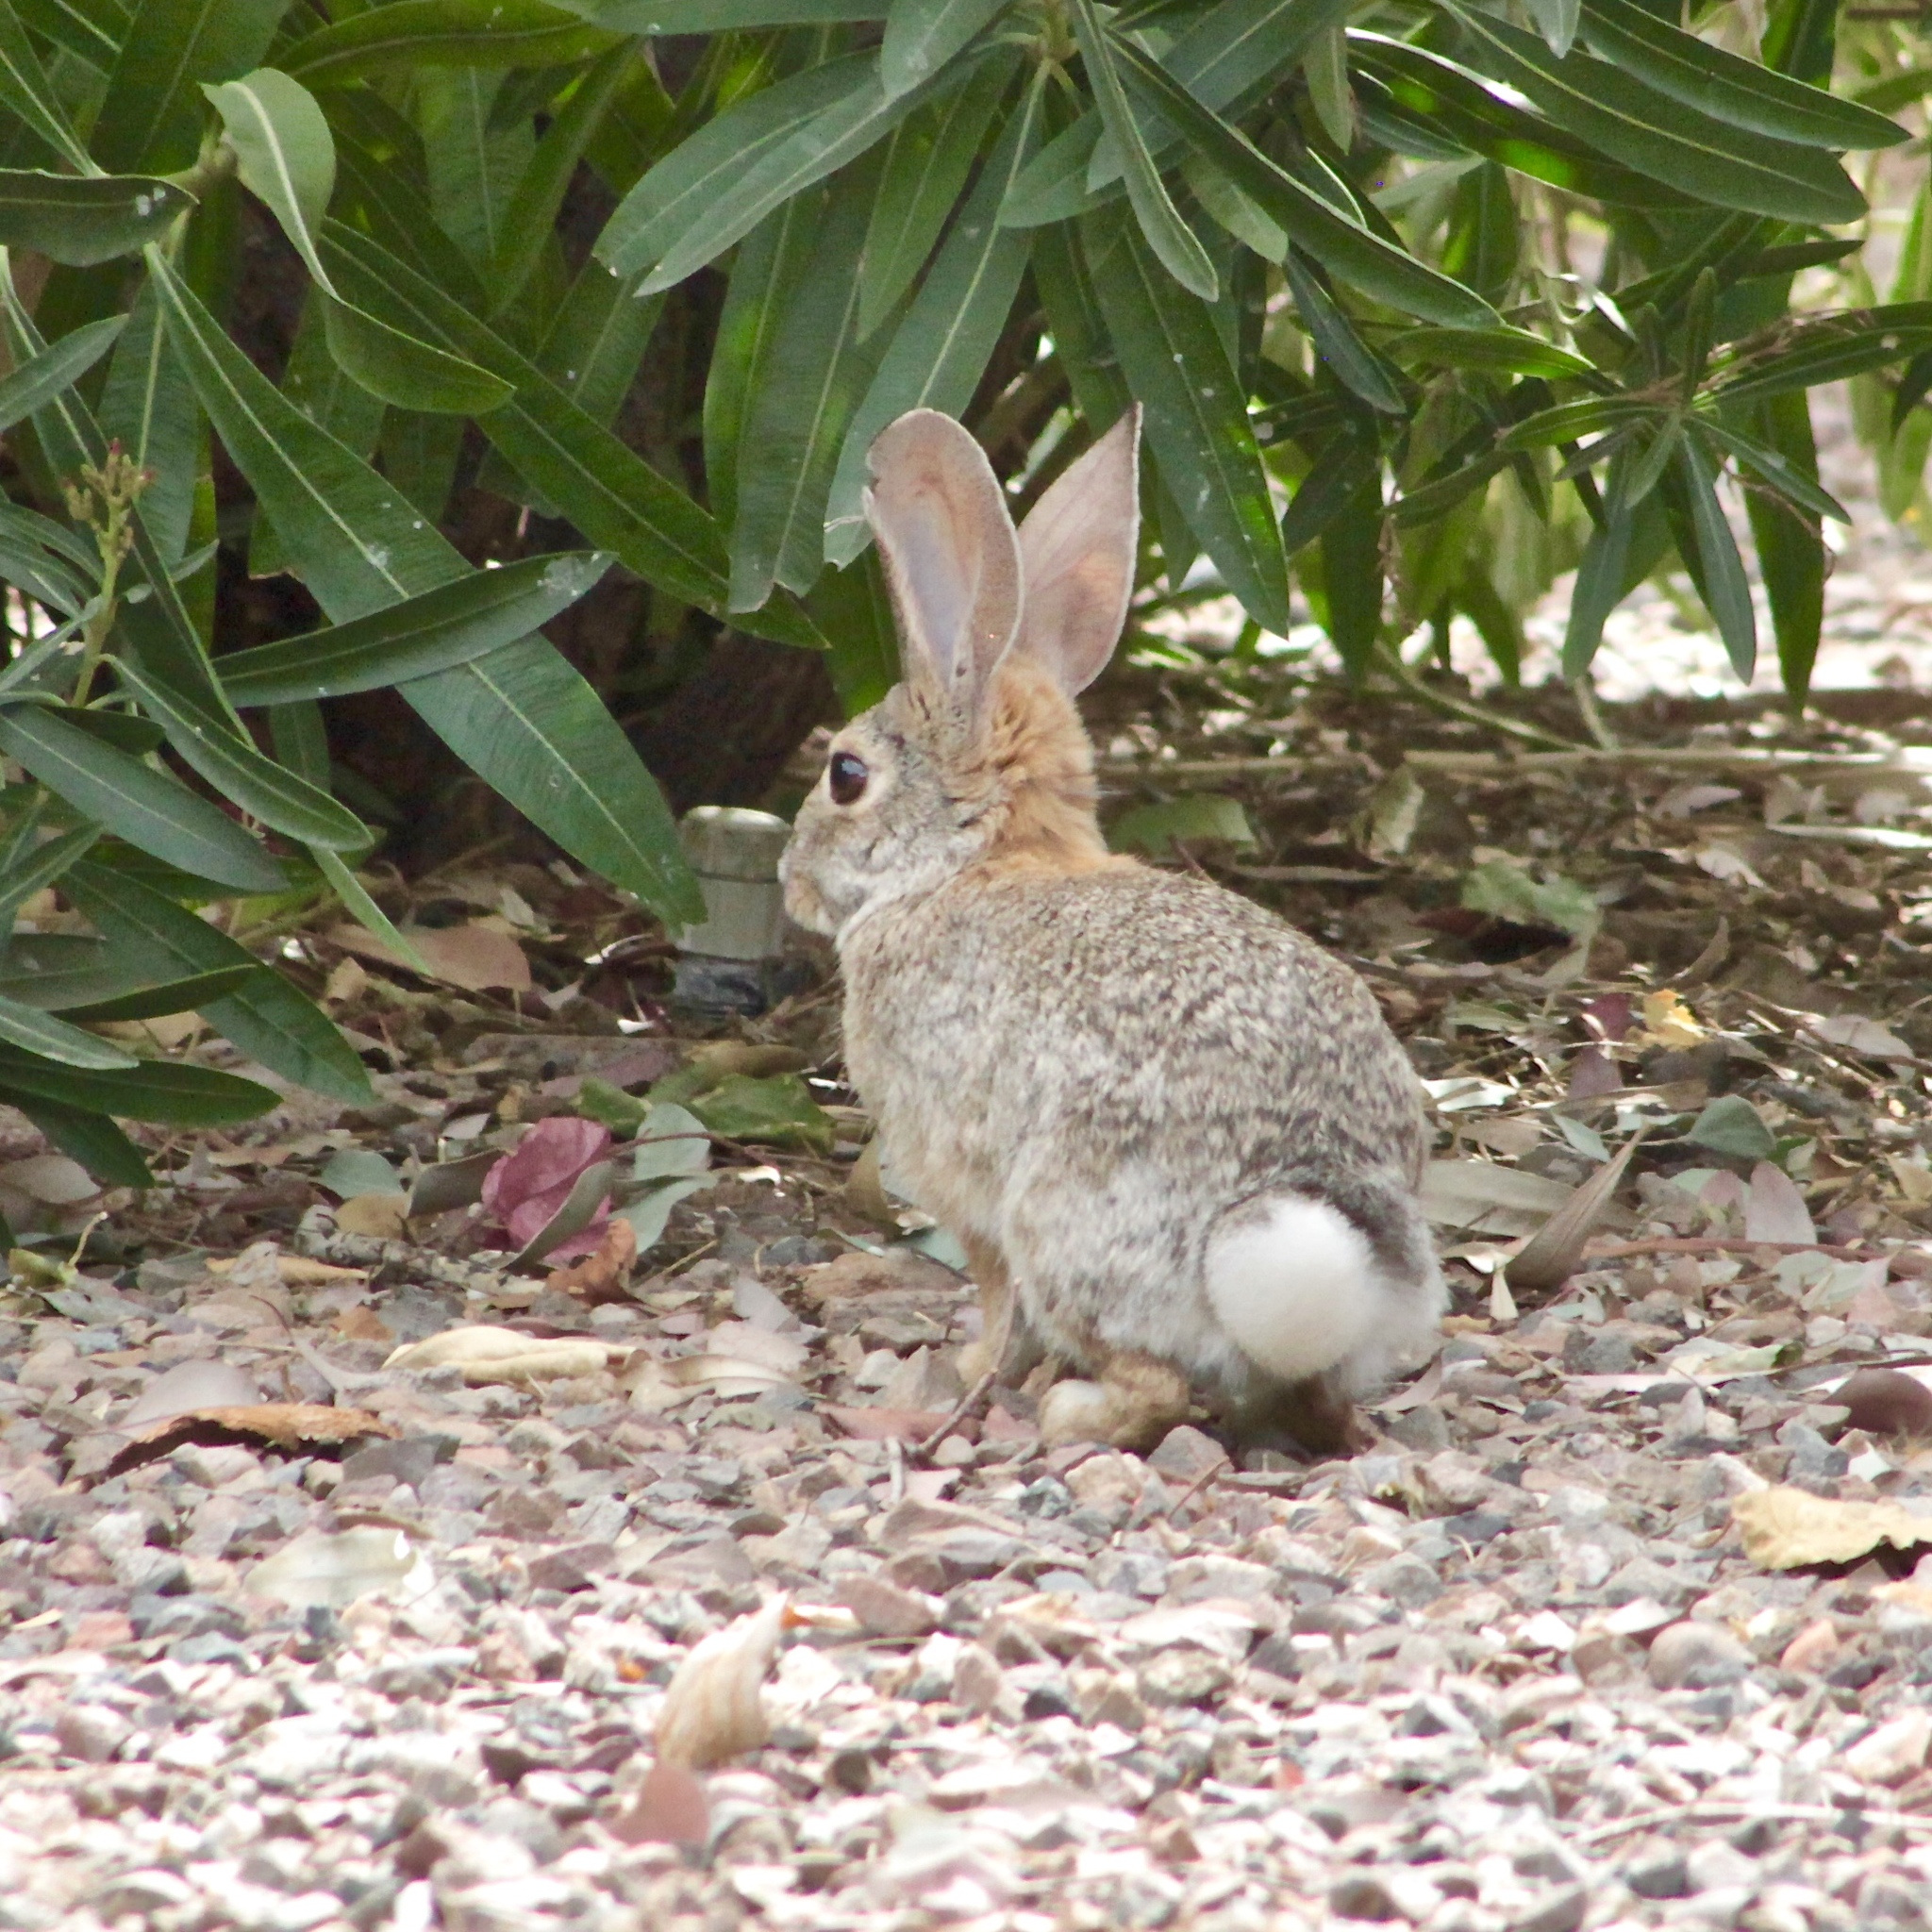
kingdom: Animalia
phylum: Chordata
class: Mammalia
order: Lagomorpha
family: Leporidae
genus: Sylvilagus
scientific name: Sylvilagus audubonii
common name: Desert cottontail
